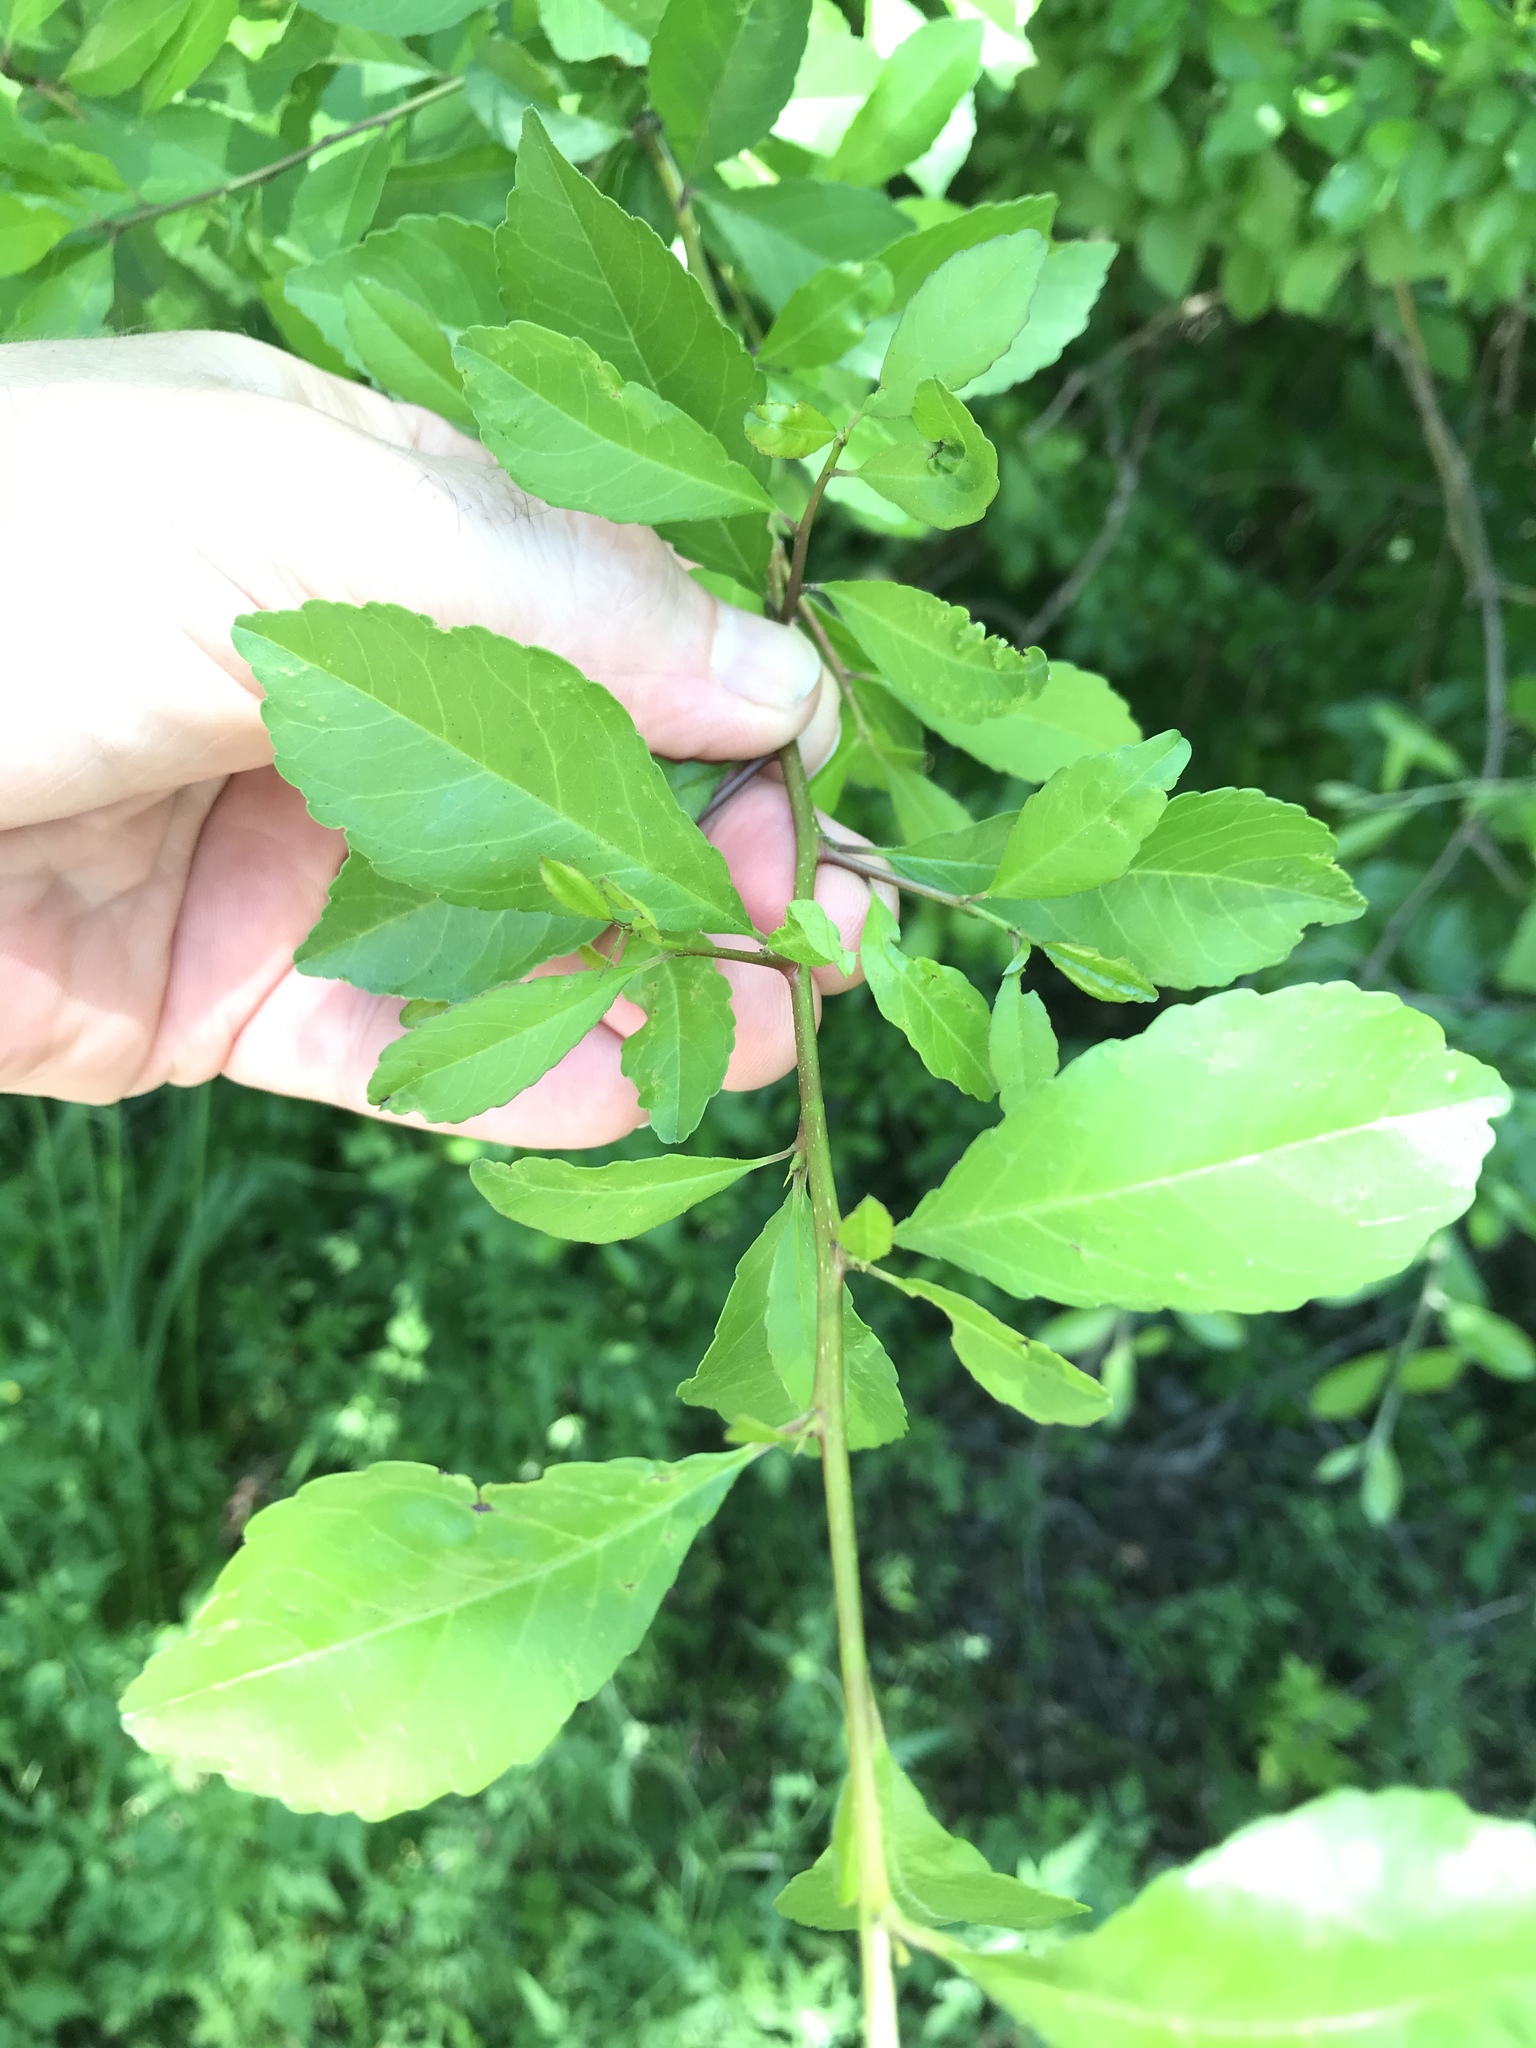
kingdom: Plantae
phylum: Tracheophyta
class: Magnoliopsida
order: Aquifoliales
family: Aquifoliaceae
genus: Ilex
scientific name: Ilex decidua
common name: Possum-haw
